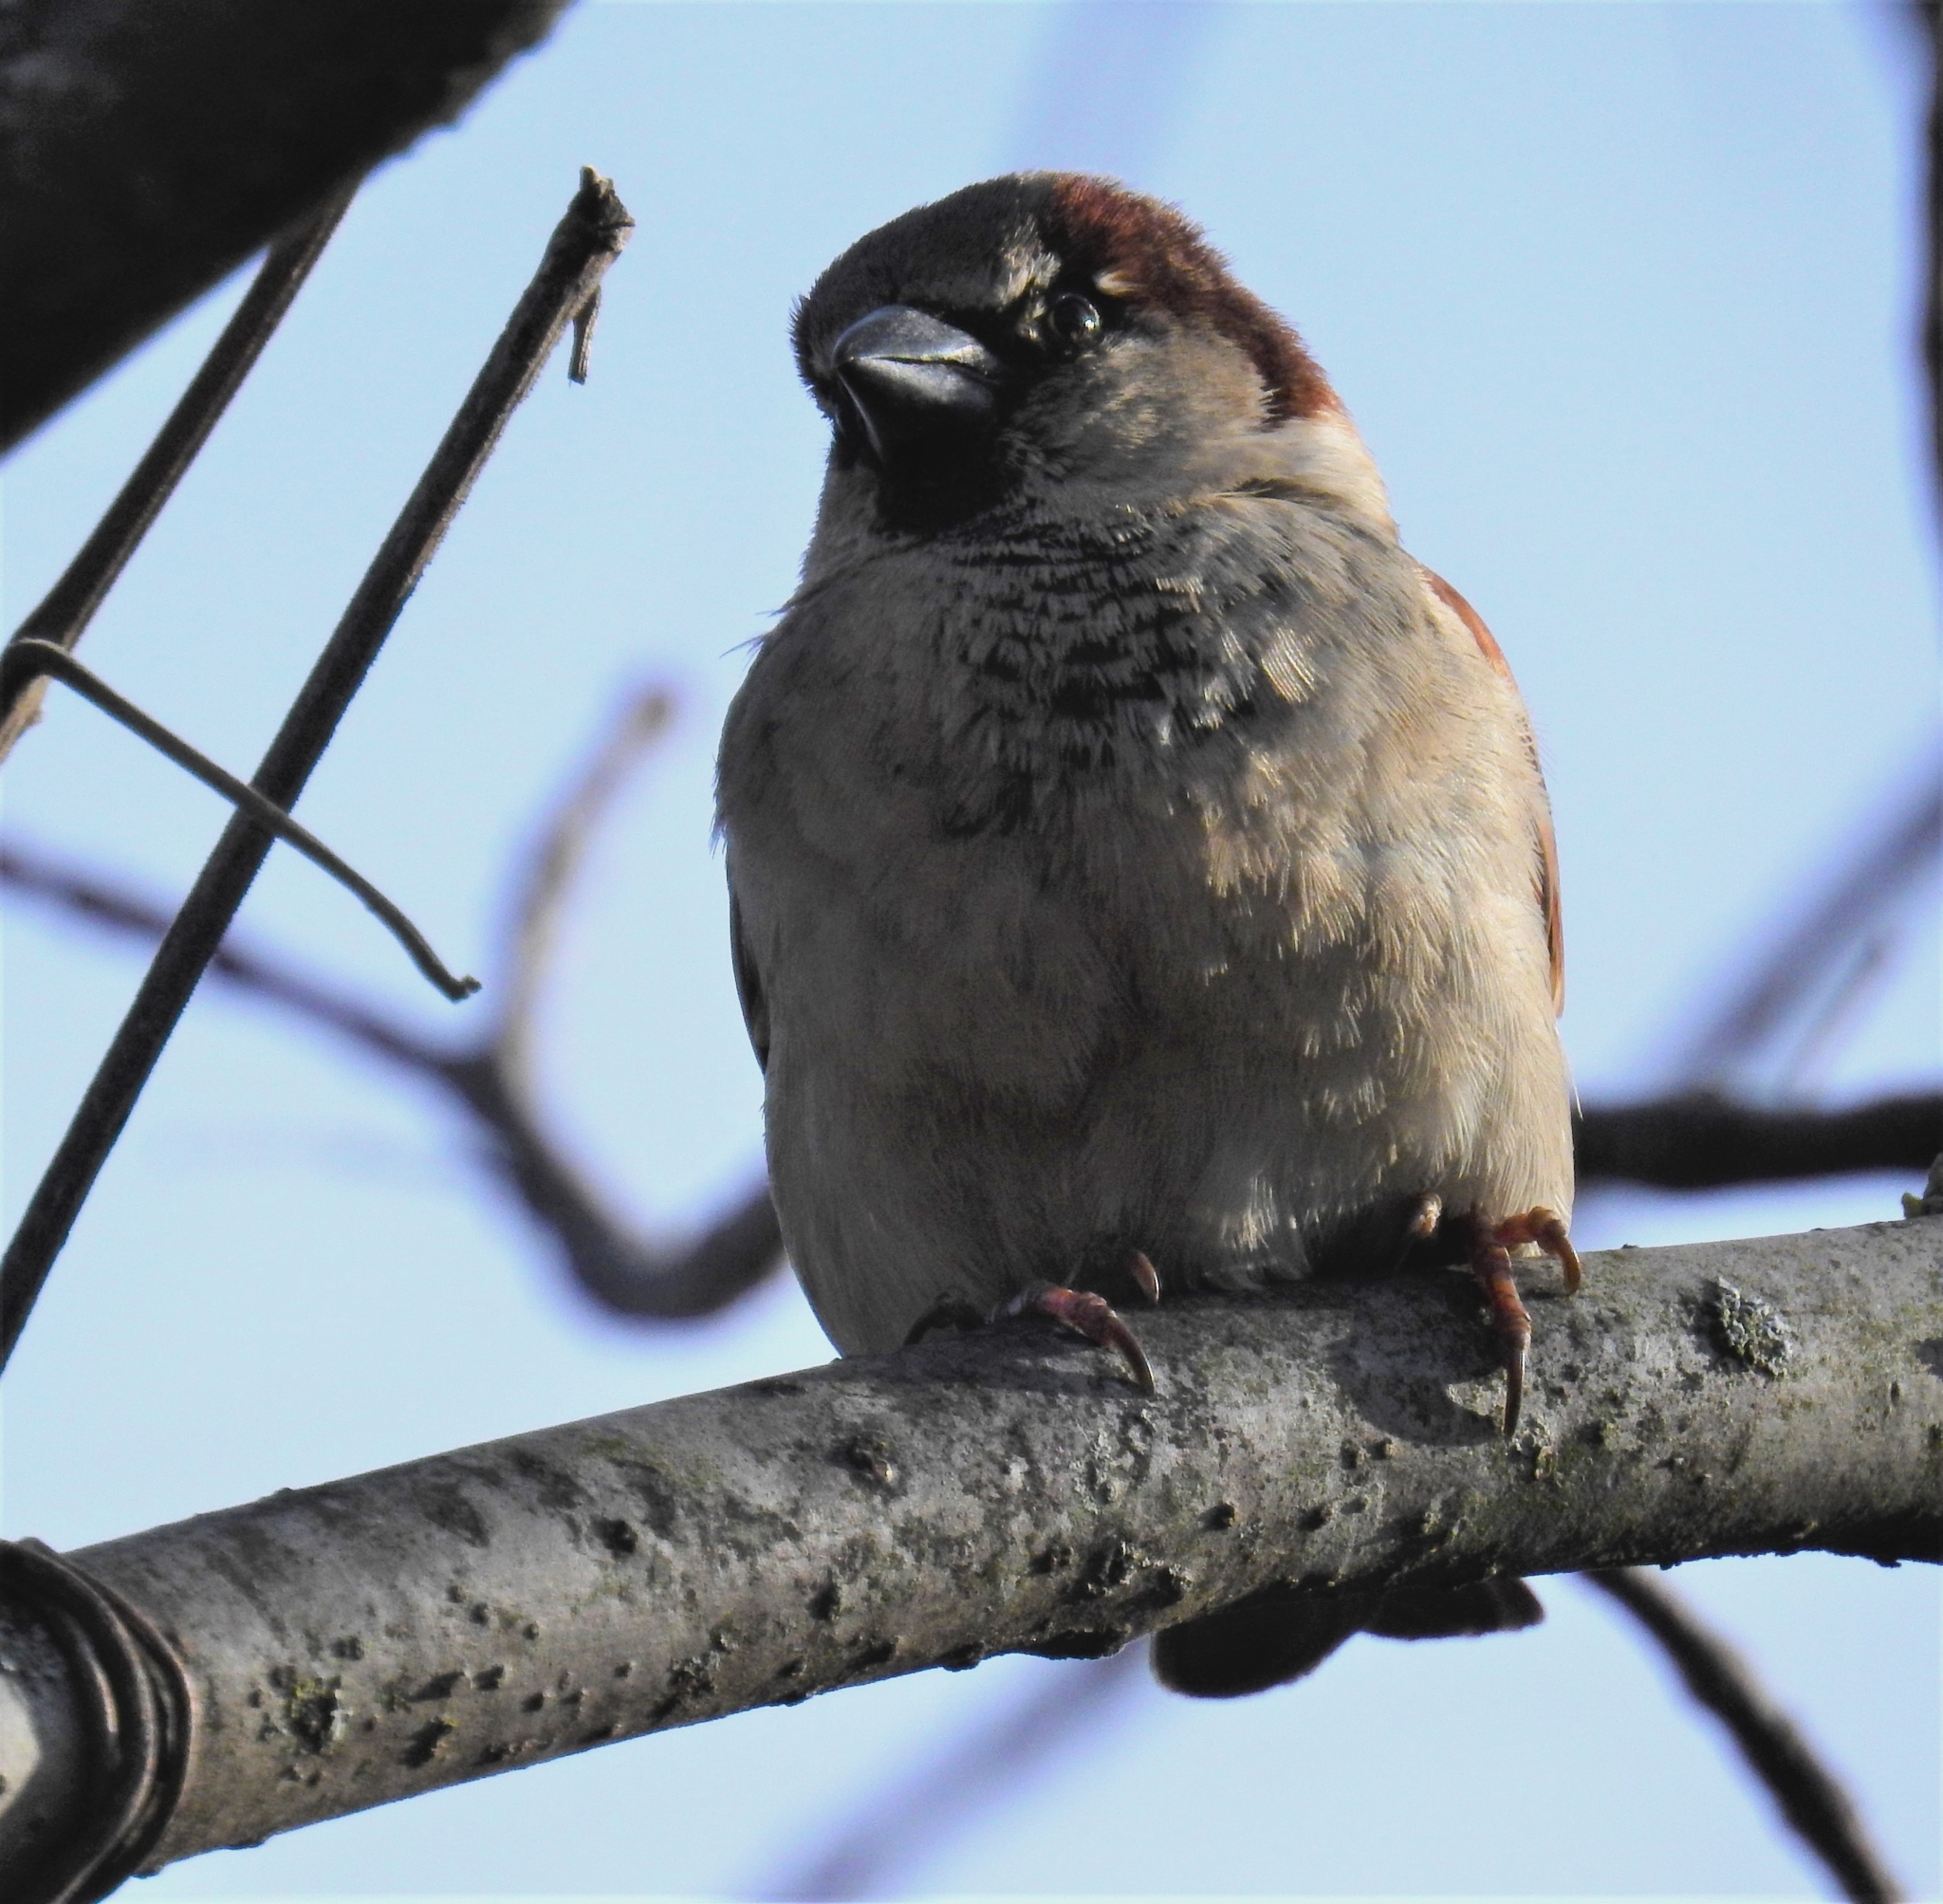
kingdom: Animalia
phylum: Chordata
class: Aves
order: Passeriformes
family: Passeridae
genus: Passer
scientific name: Passer domesticus
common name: House sparrow
